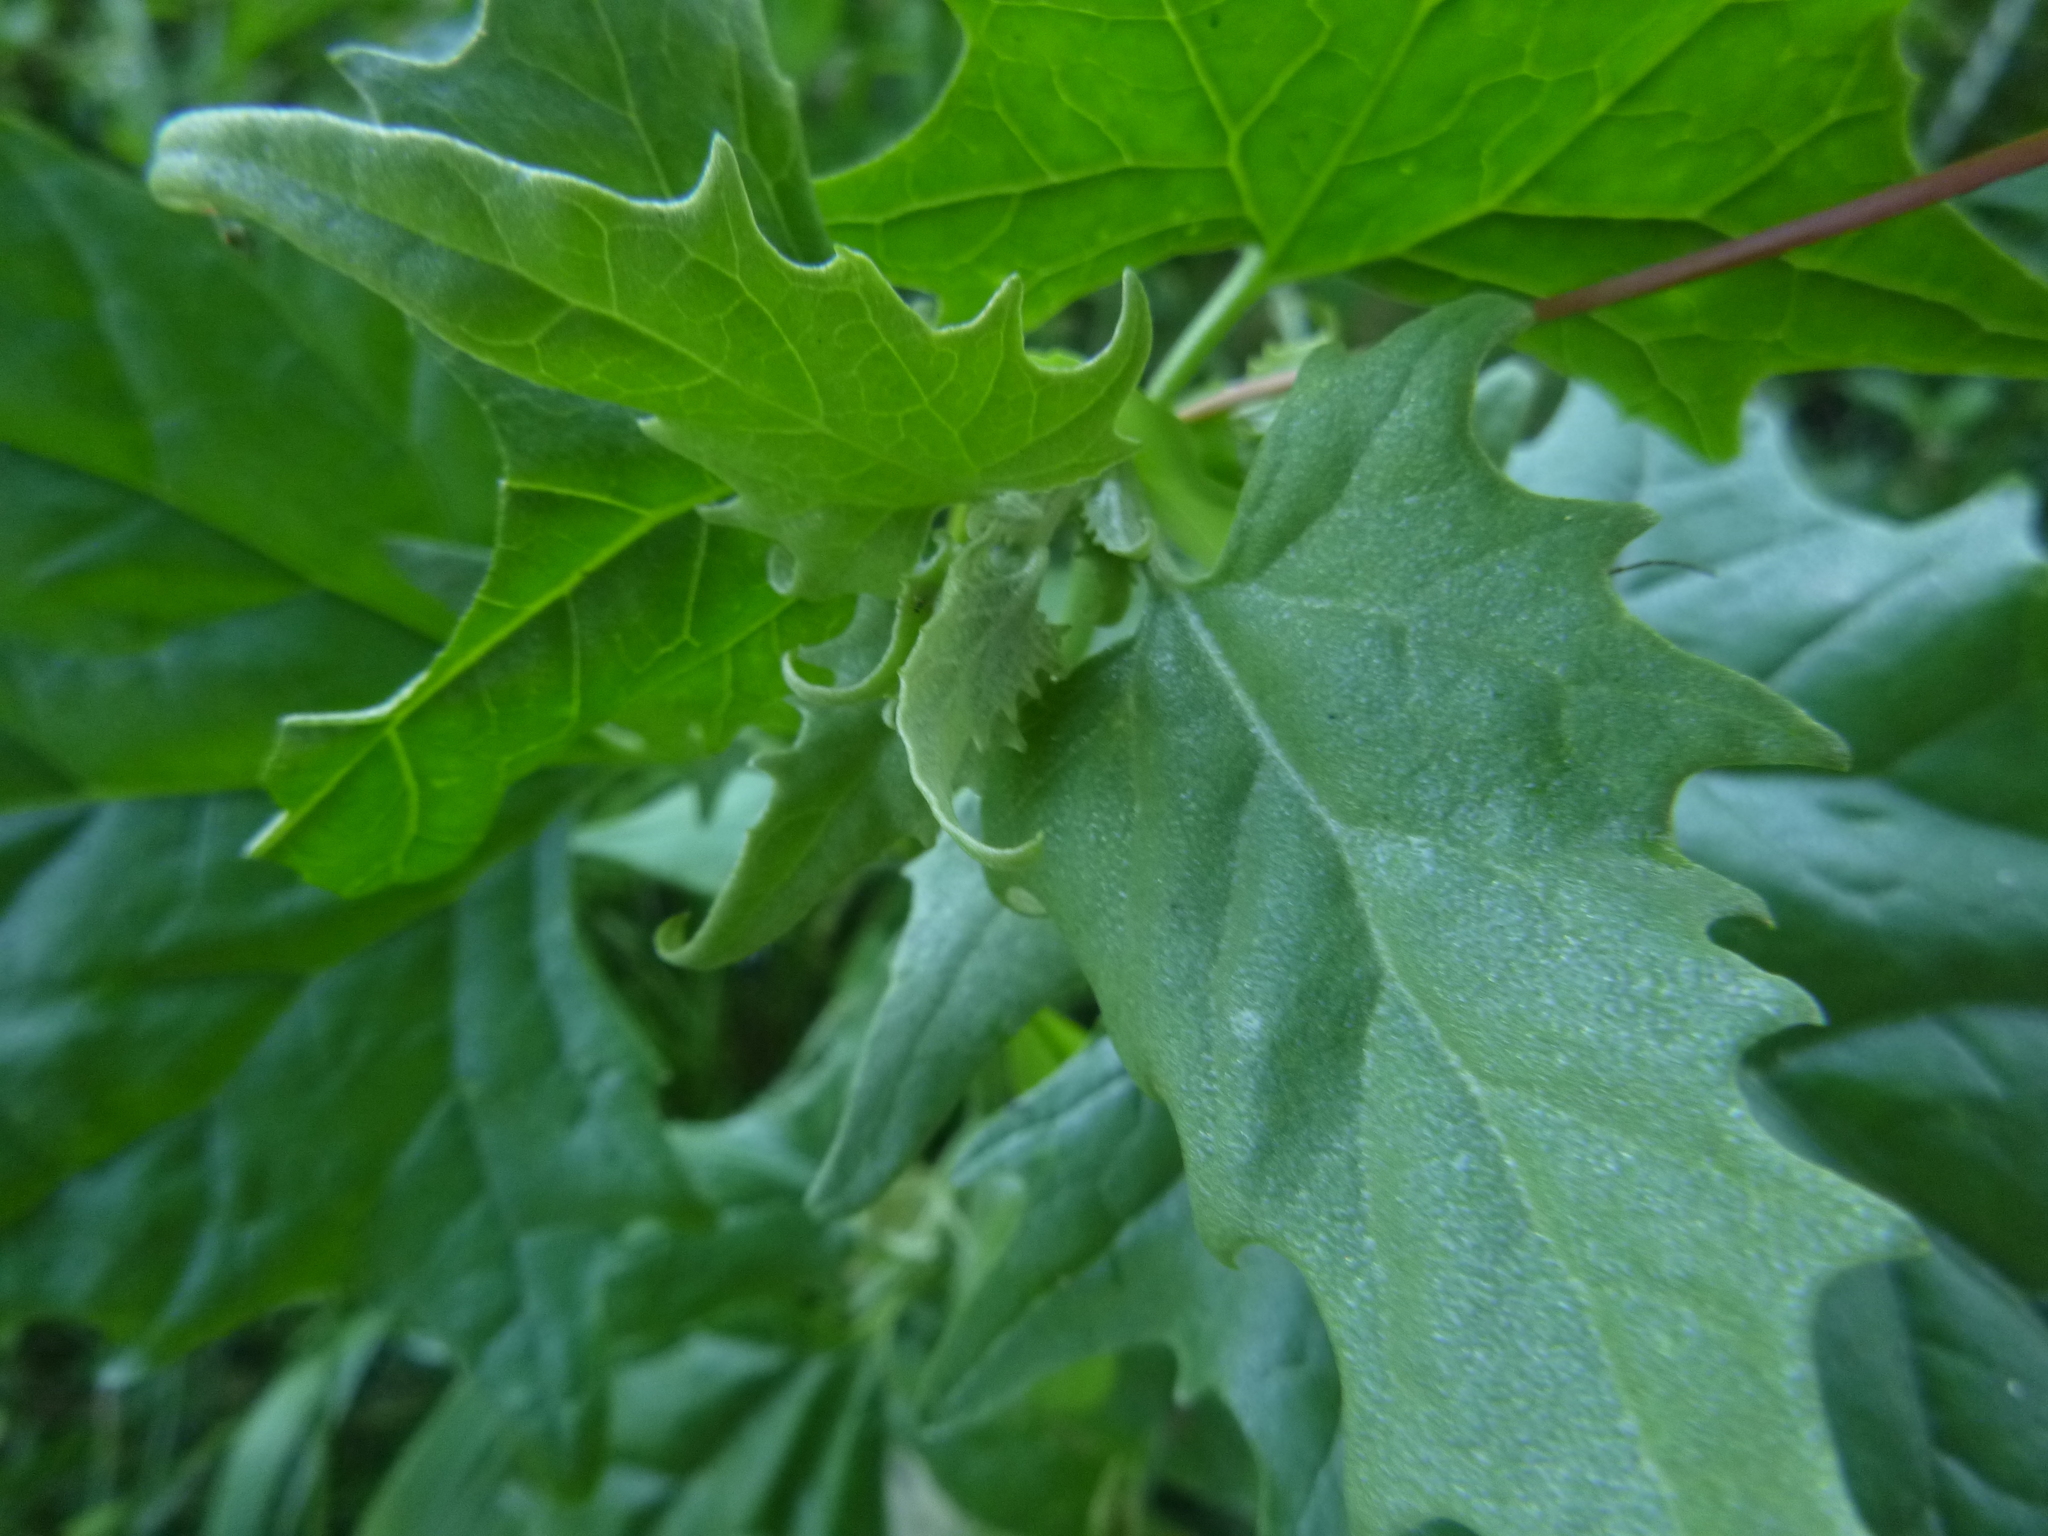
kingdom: Plantae
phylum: Tracheophyta
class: Magnoliopsida
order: Caryophyllales
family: Amaranthaceae
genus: Atriplex
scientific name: Atriplex sagittata
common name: Purple orache
